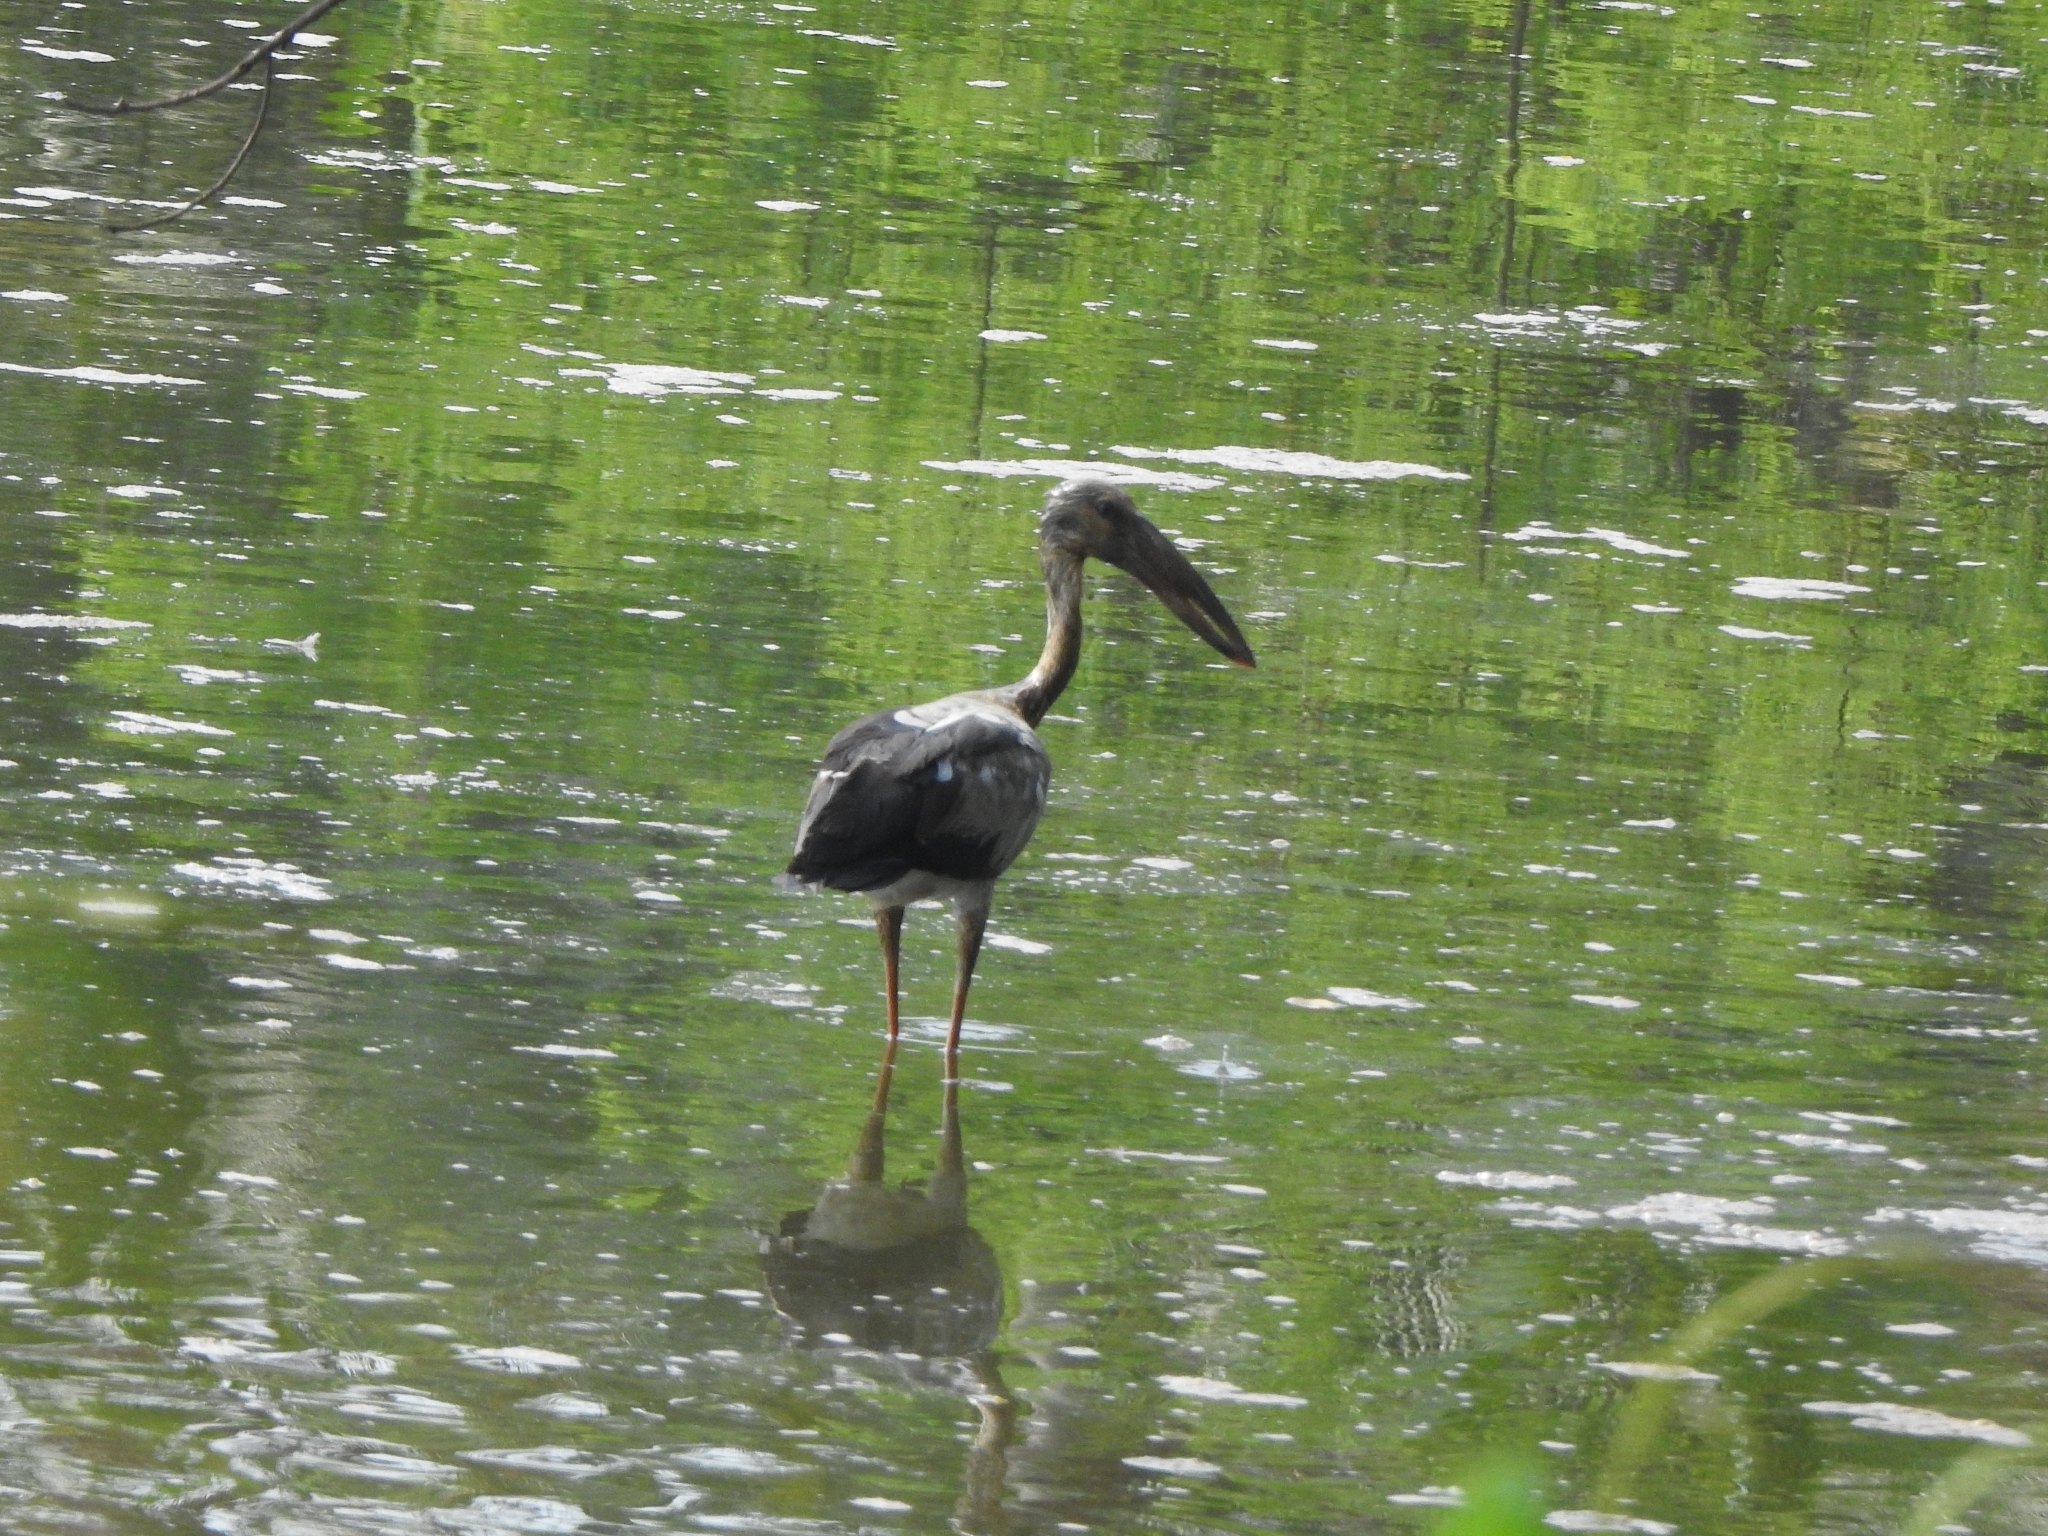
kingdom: Animalia
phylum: Chordata
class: Aves
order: Ciconiiformes
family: Ciconiidae
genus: Anastomus
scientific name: Anastomus oscitans
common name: Asian openbill
